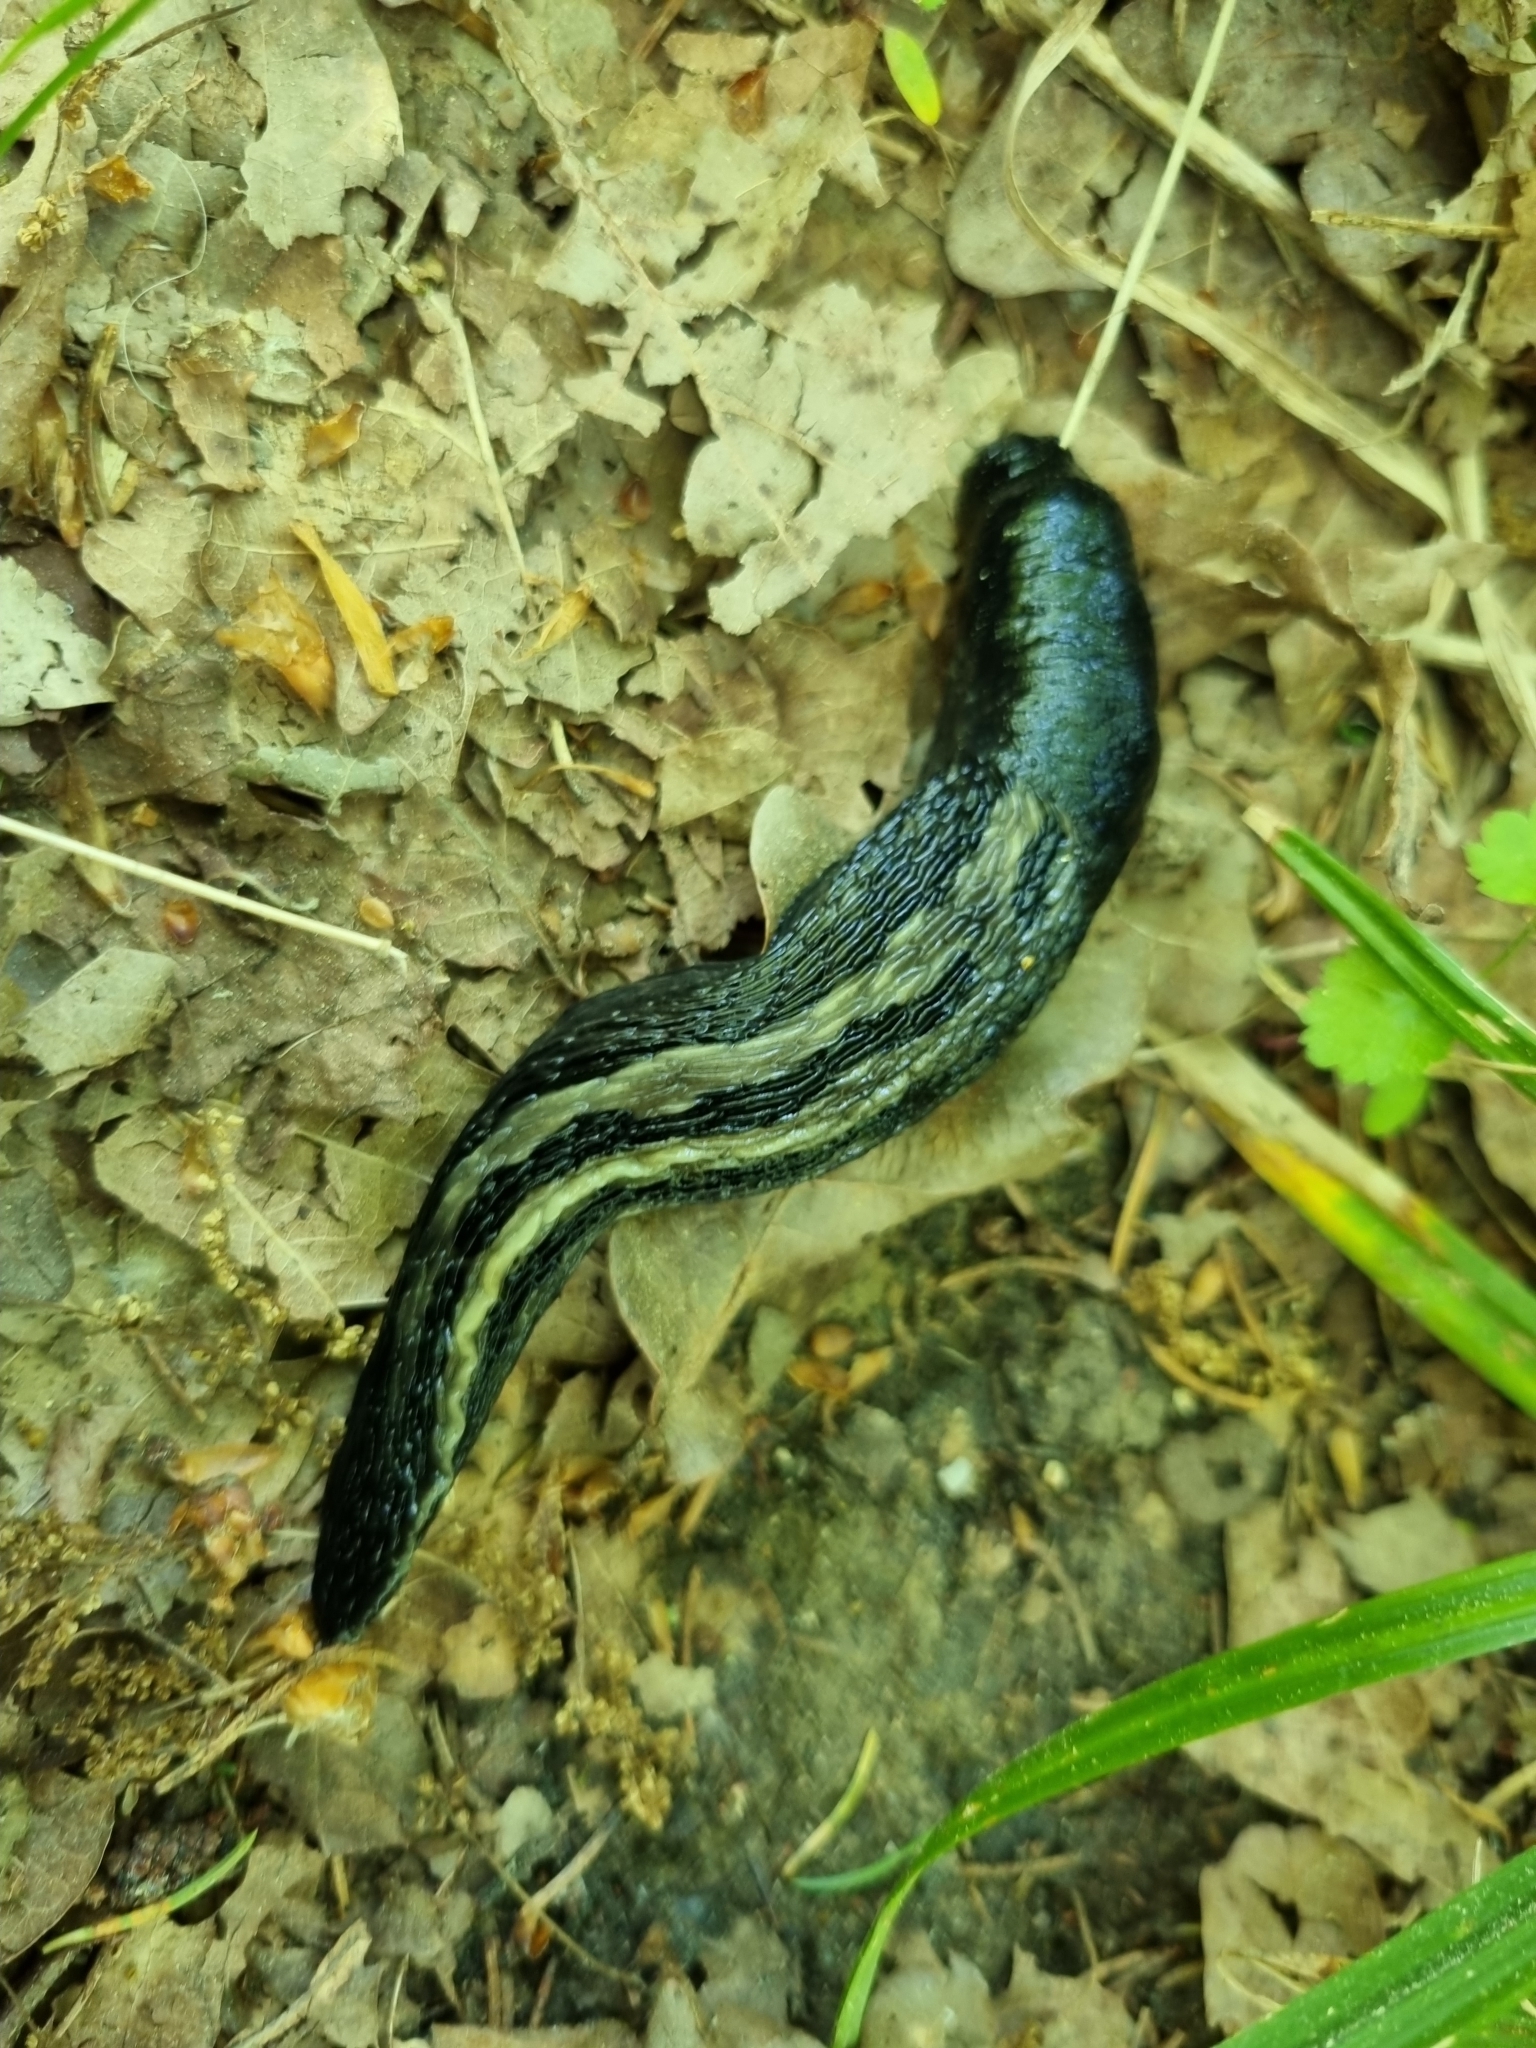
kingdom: Animalia
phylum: Mollusca
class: Gastropoda
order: Stylommatophora
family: Limacidae
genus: Limax
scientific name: Limax cinereoniger
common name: Ash-black slug
